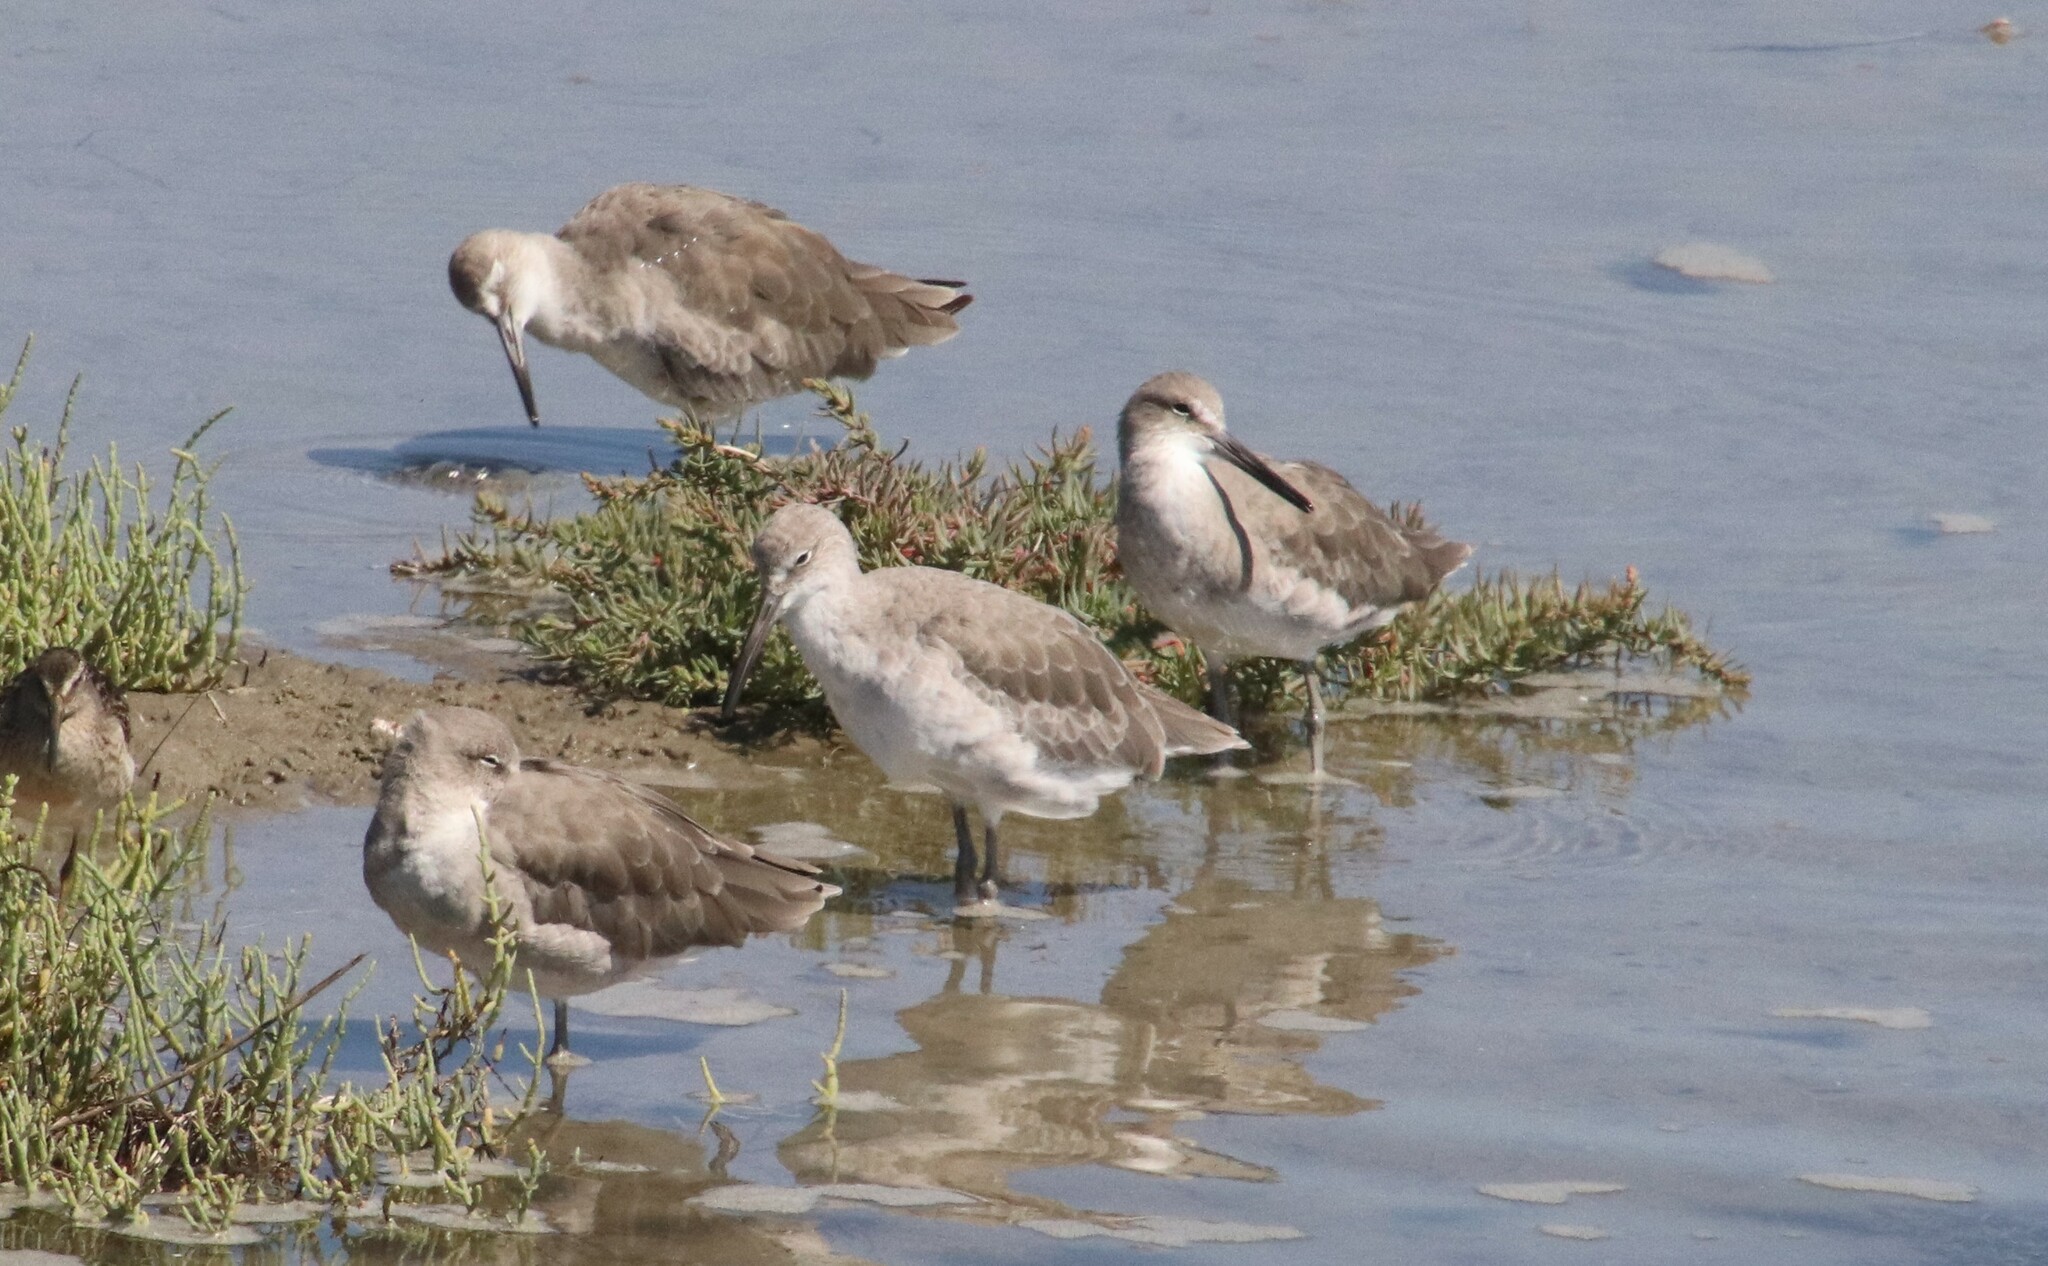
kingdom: Animalia
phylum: Chordata
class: Aves
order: Charadriiformes
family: Scolopacidae
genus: Tringa
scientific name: Tringa semipalmata
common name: Willet
